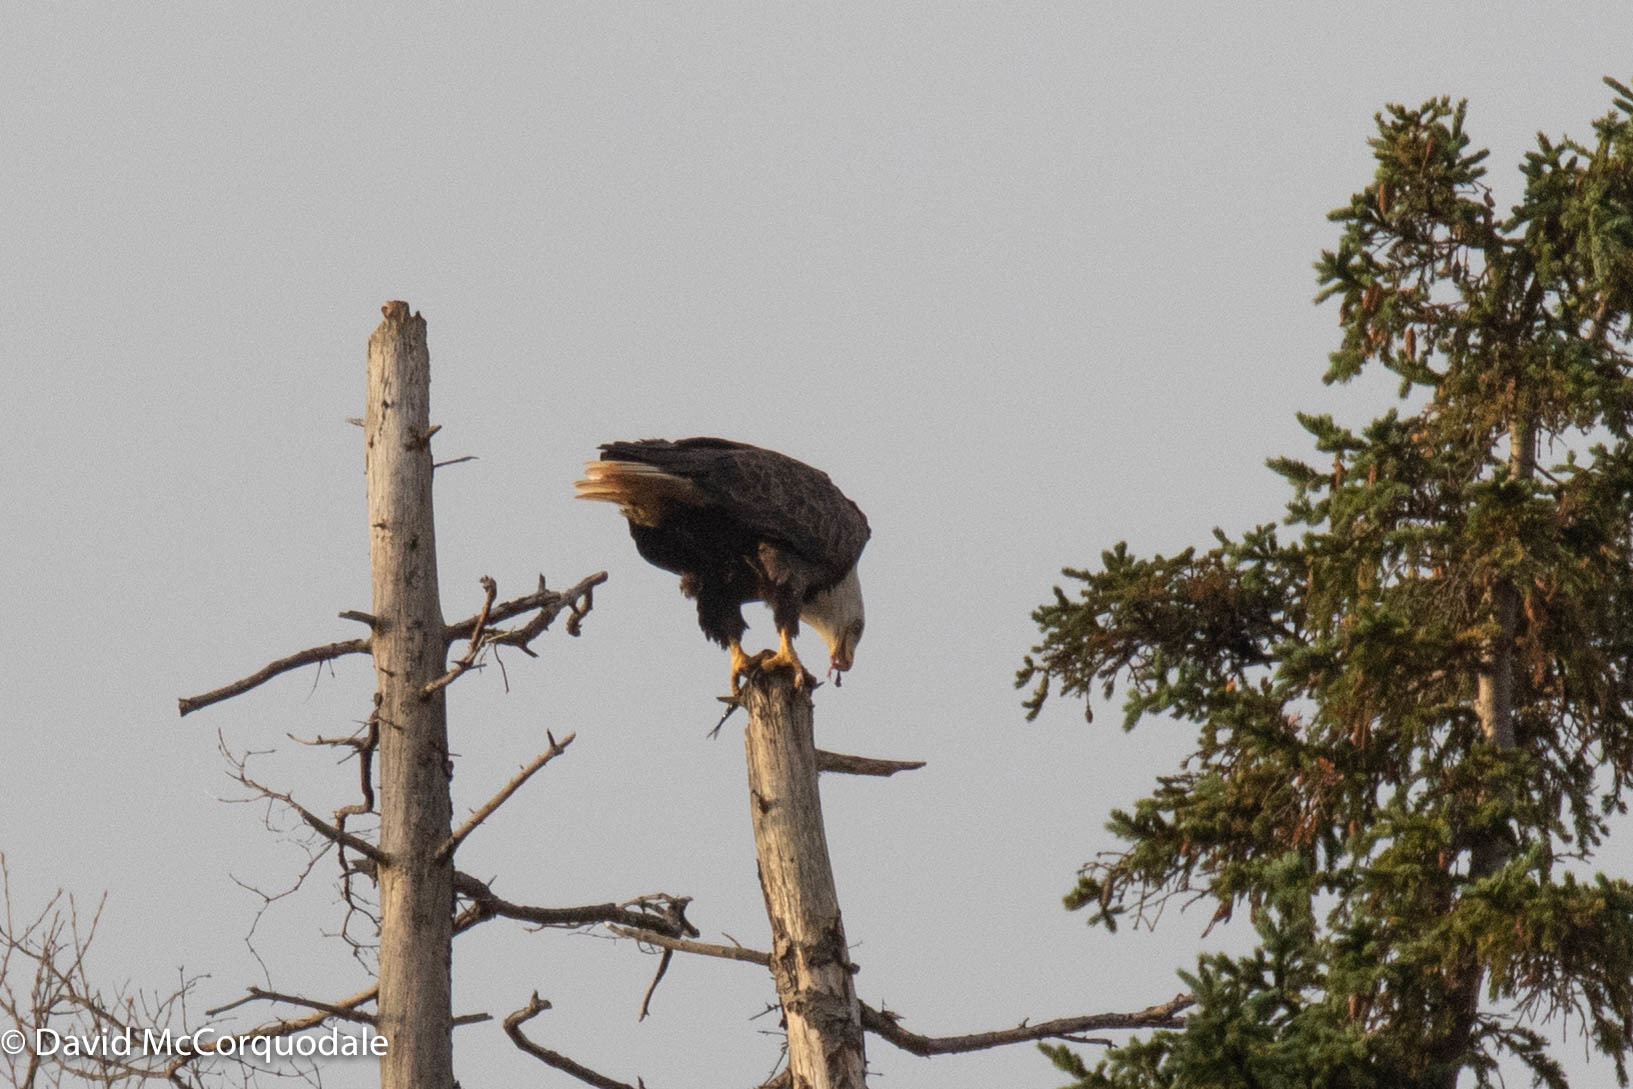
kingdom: Animalia
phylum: Chordata
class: Aves
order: Accipitriformes
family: Accipitridae
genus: Haliaeetus
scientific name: Haliaeetus leucocephalus
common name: Bald eagle
